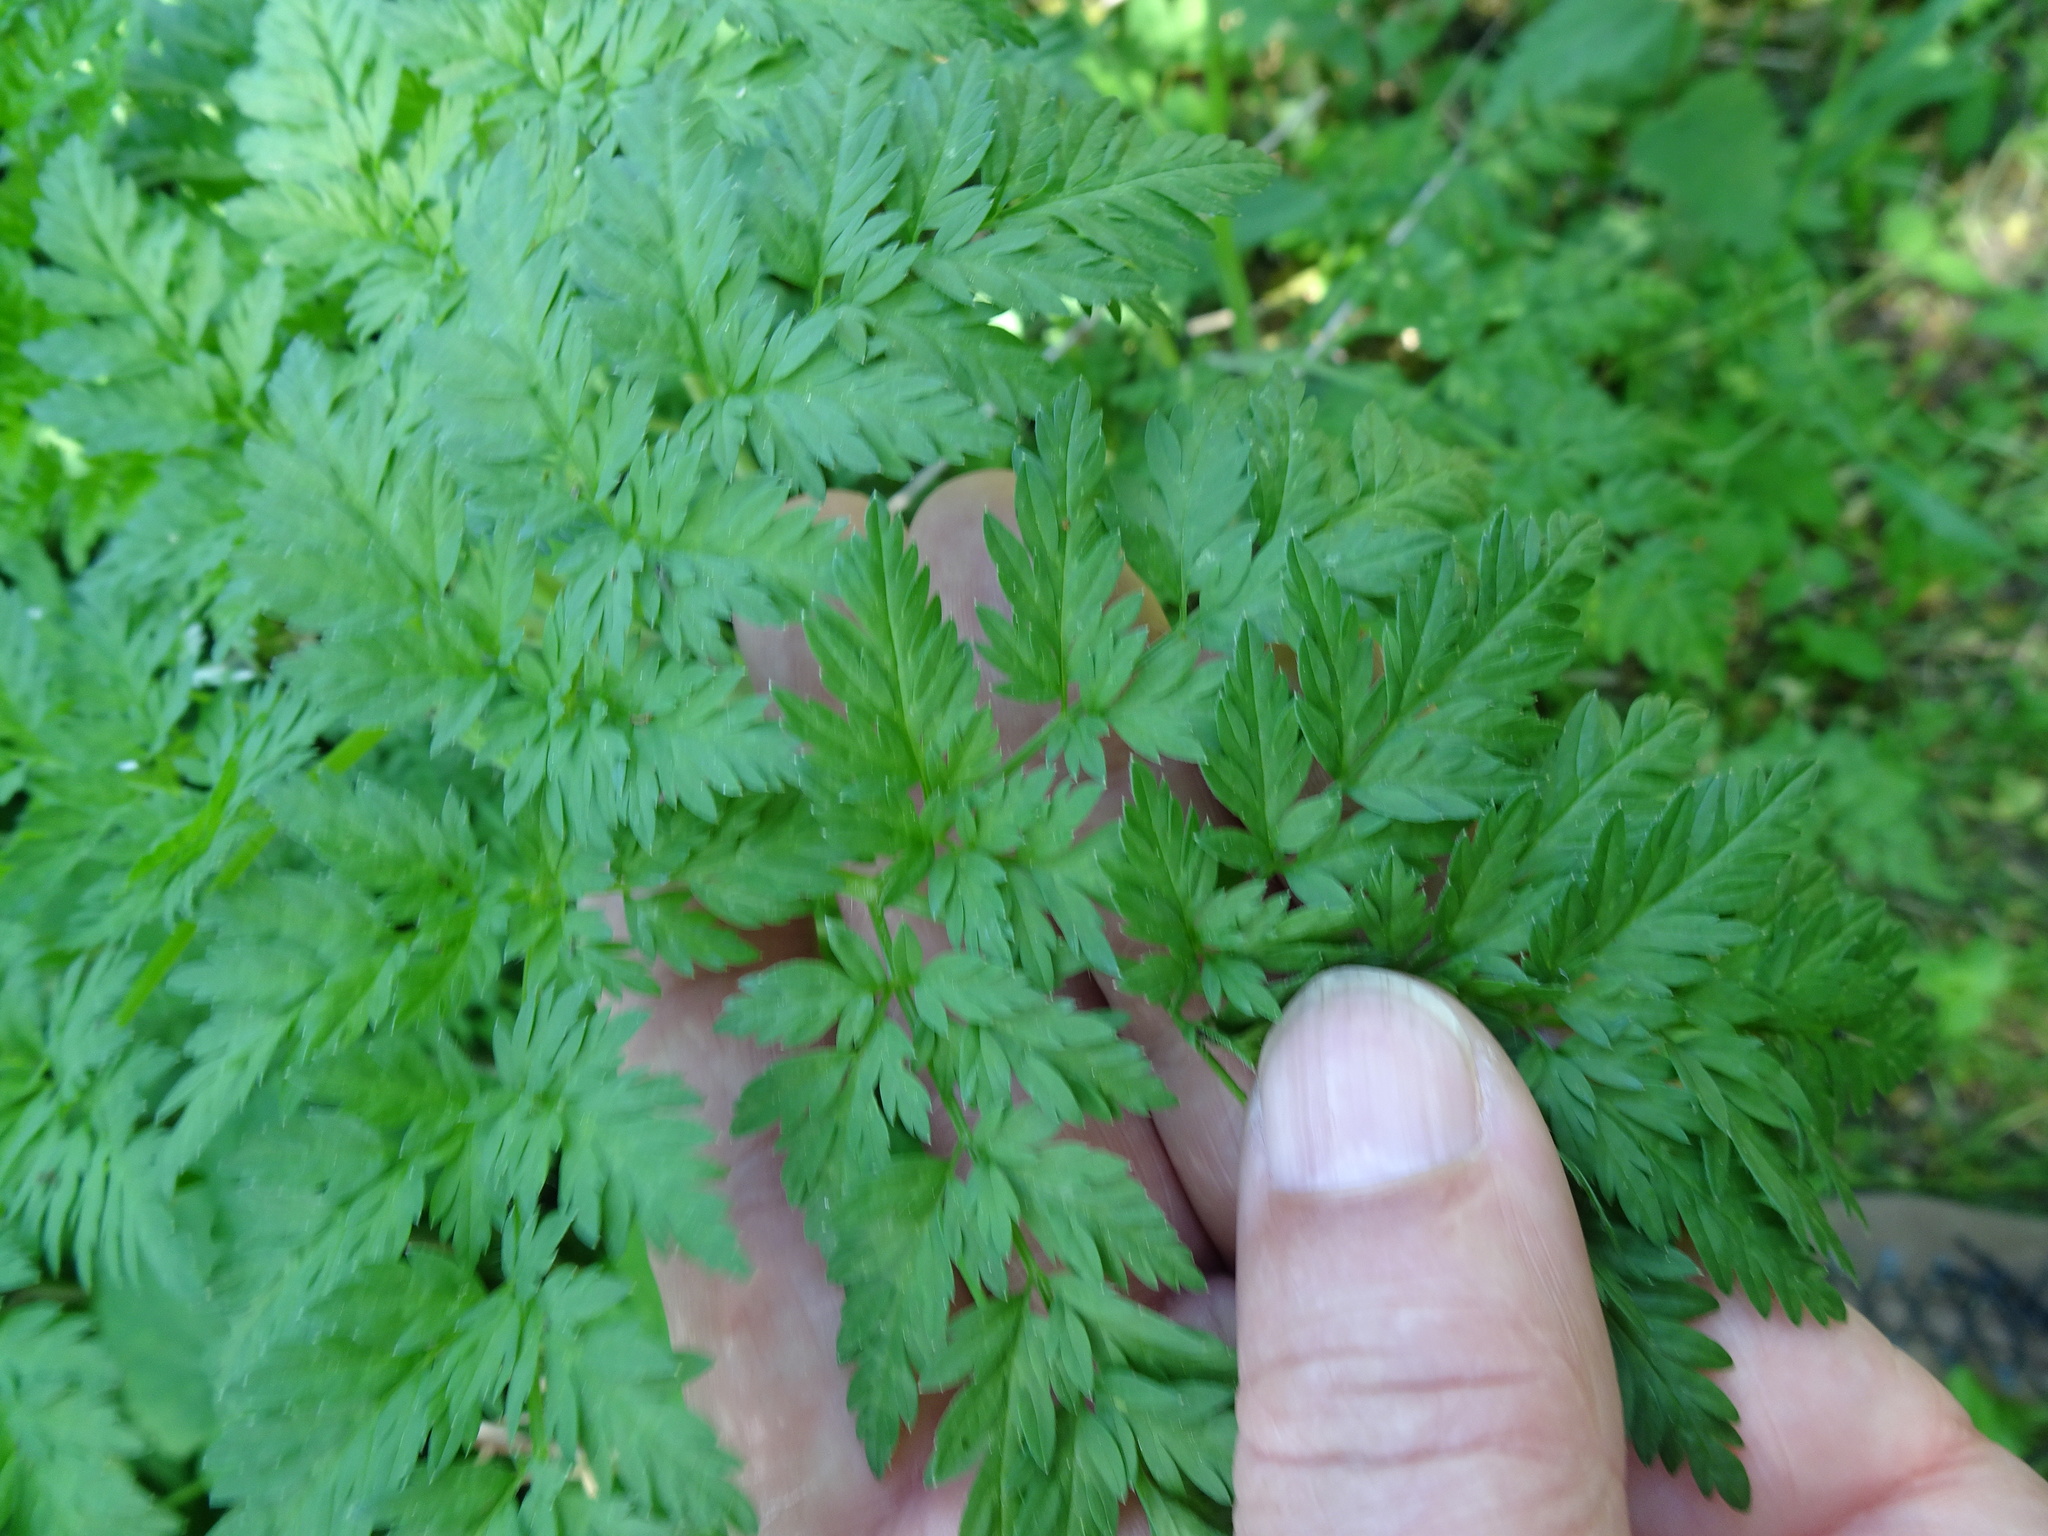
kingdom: Plantae
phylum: Tracheophyta
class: Magnoliopsida
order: Apiales
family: Apiaceae
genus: Chaerophyllum
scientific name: Chaerophyllum bulbosum
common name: Bulbous chervil
